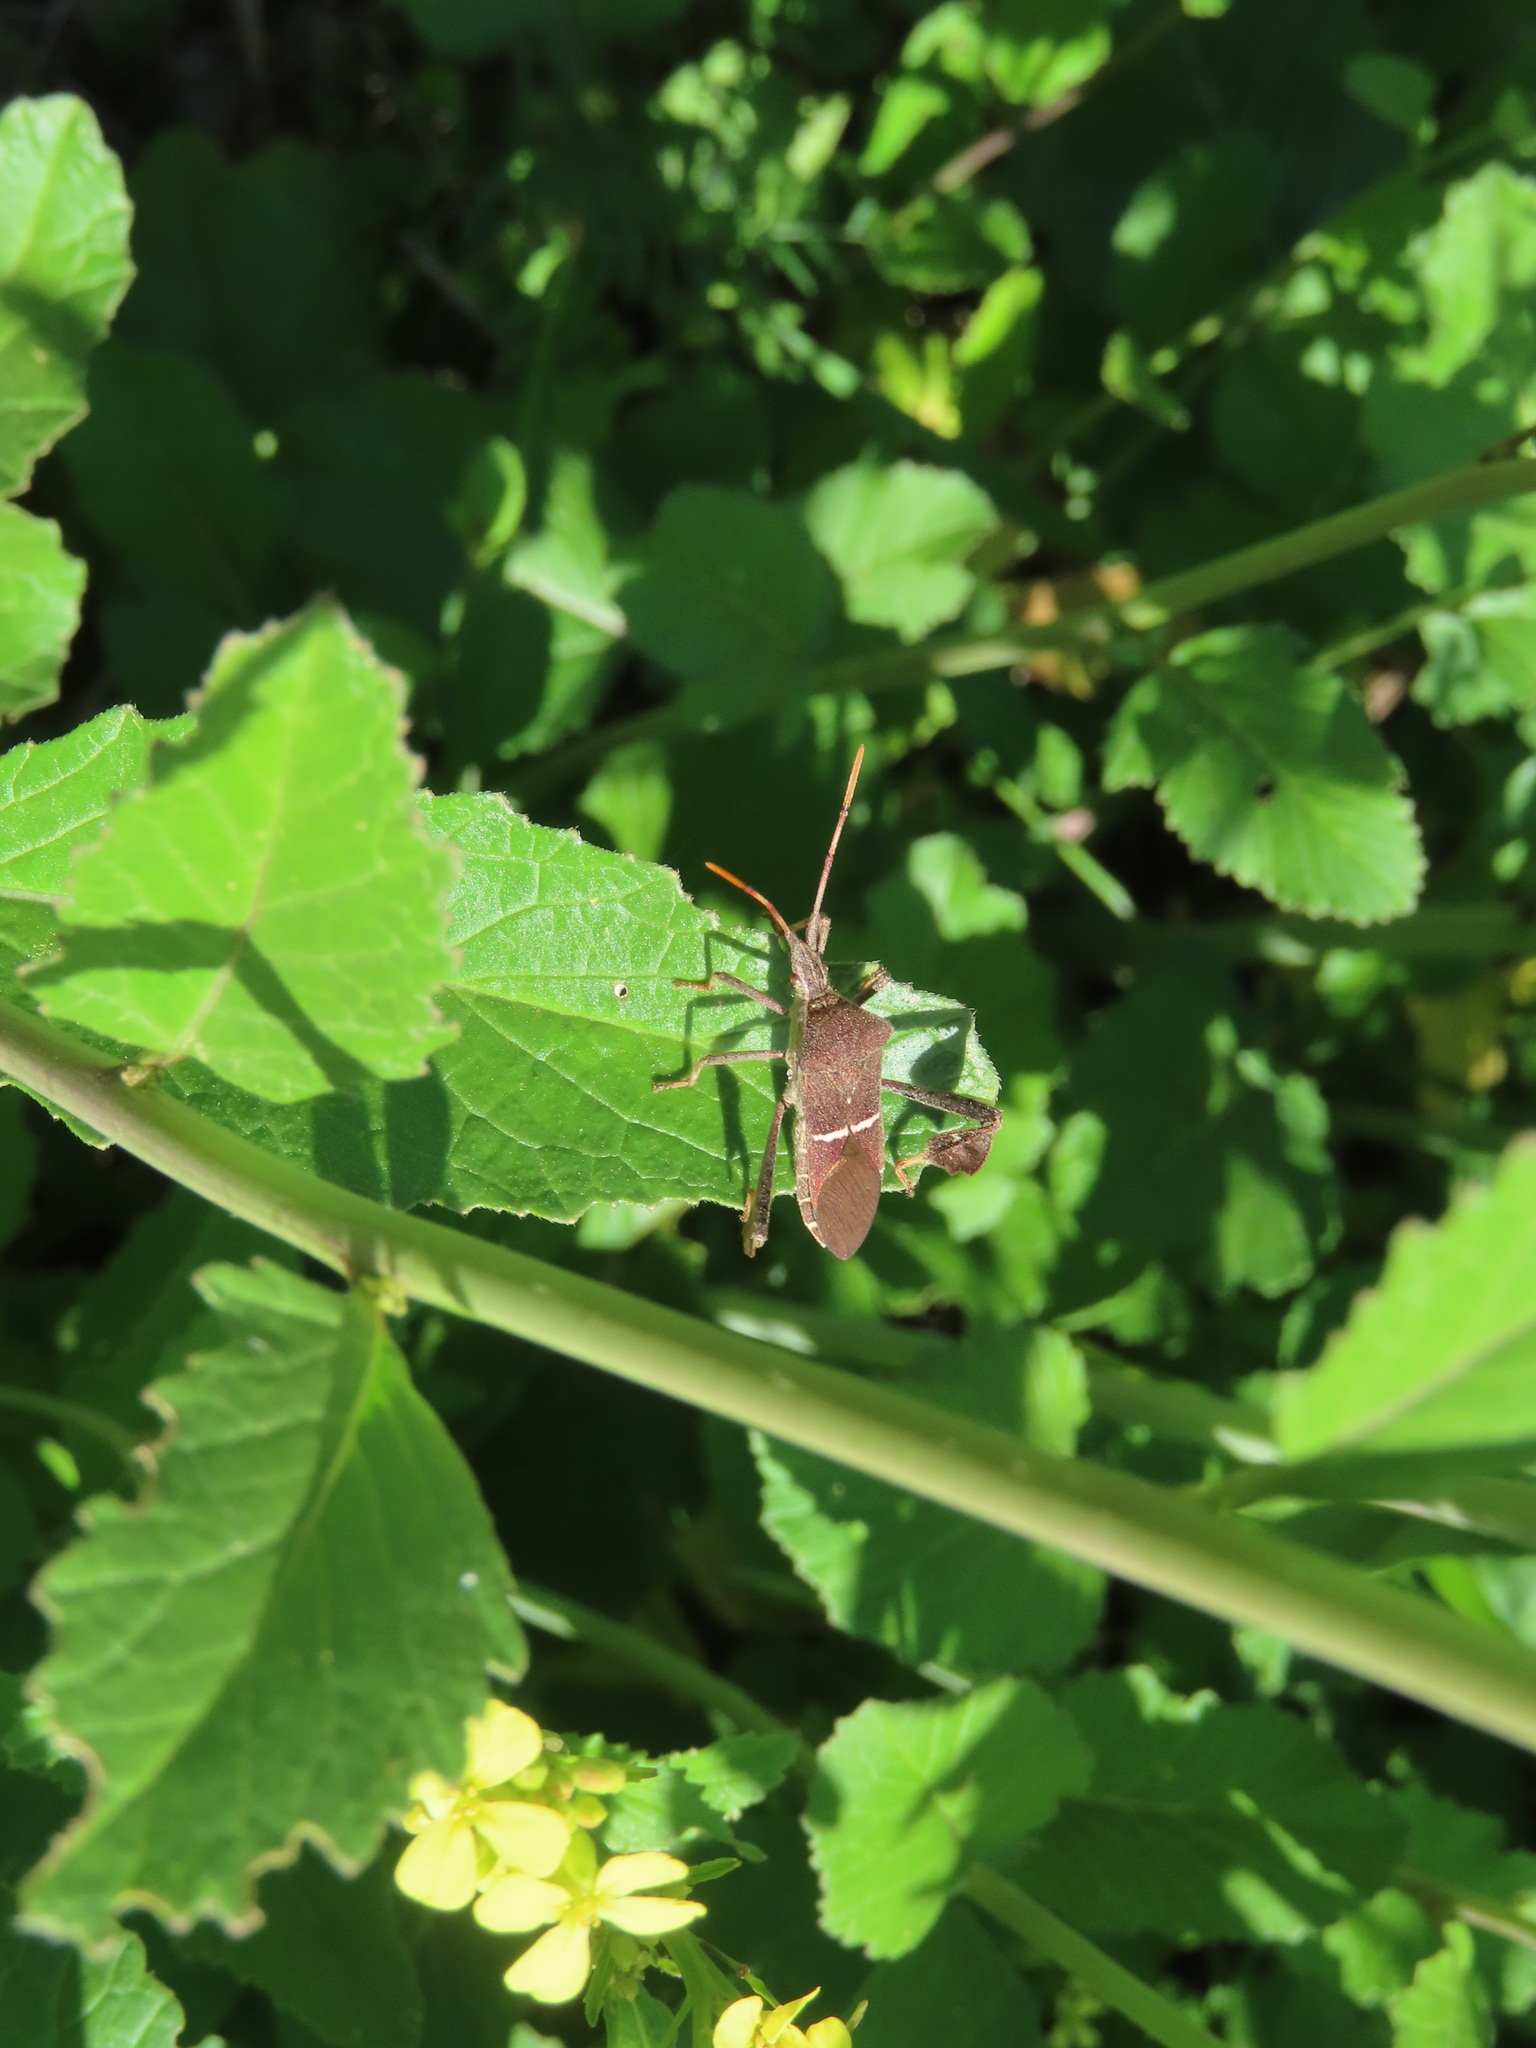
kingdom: Animalia
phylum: Arthropoda
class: Insecta
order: Hemiptera
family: Coreidae
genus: Leptoglossus
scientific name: Leptoglossus phyllopus
